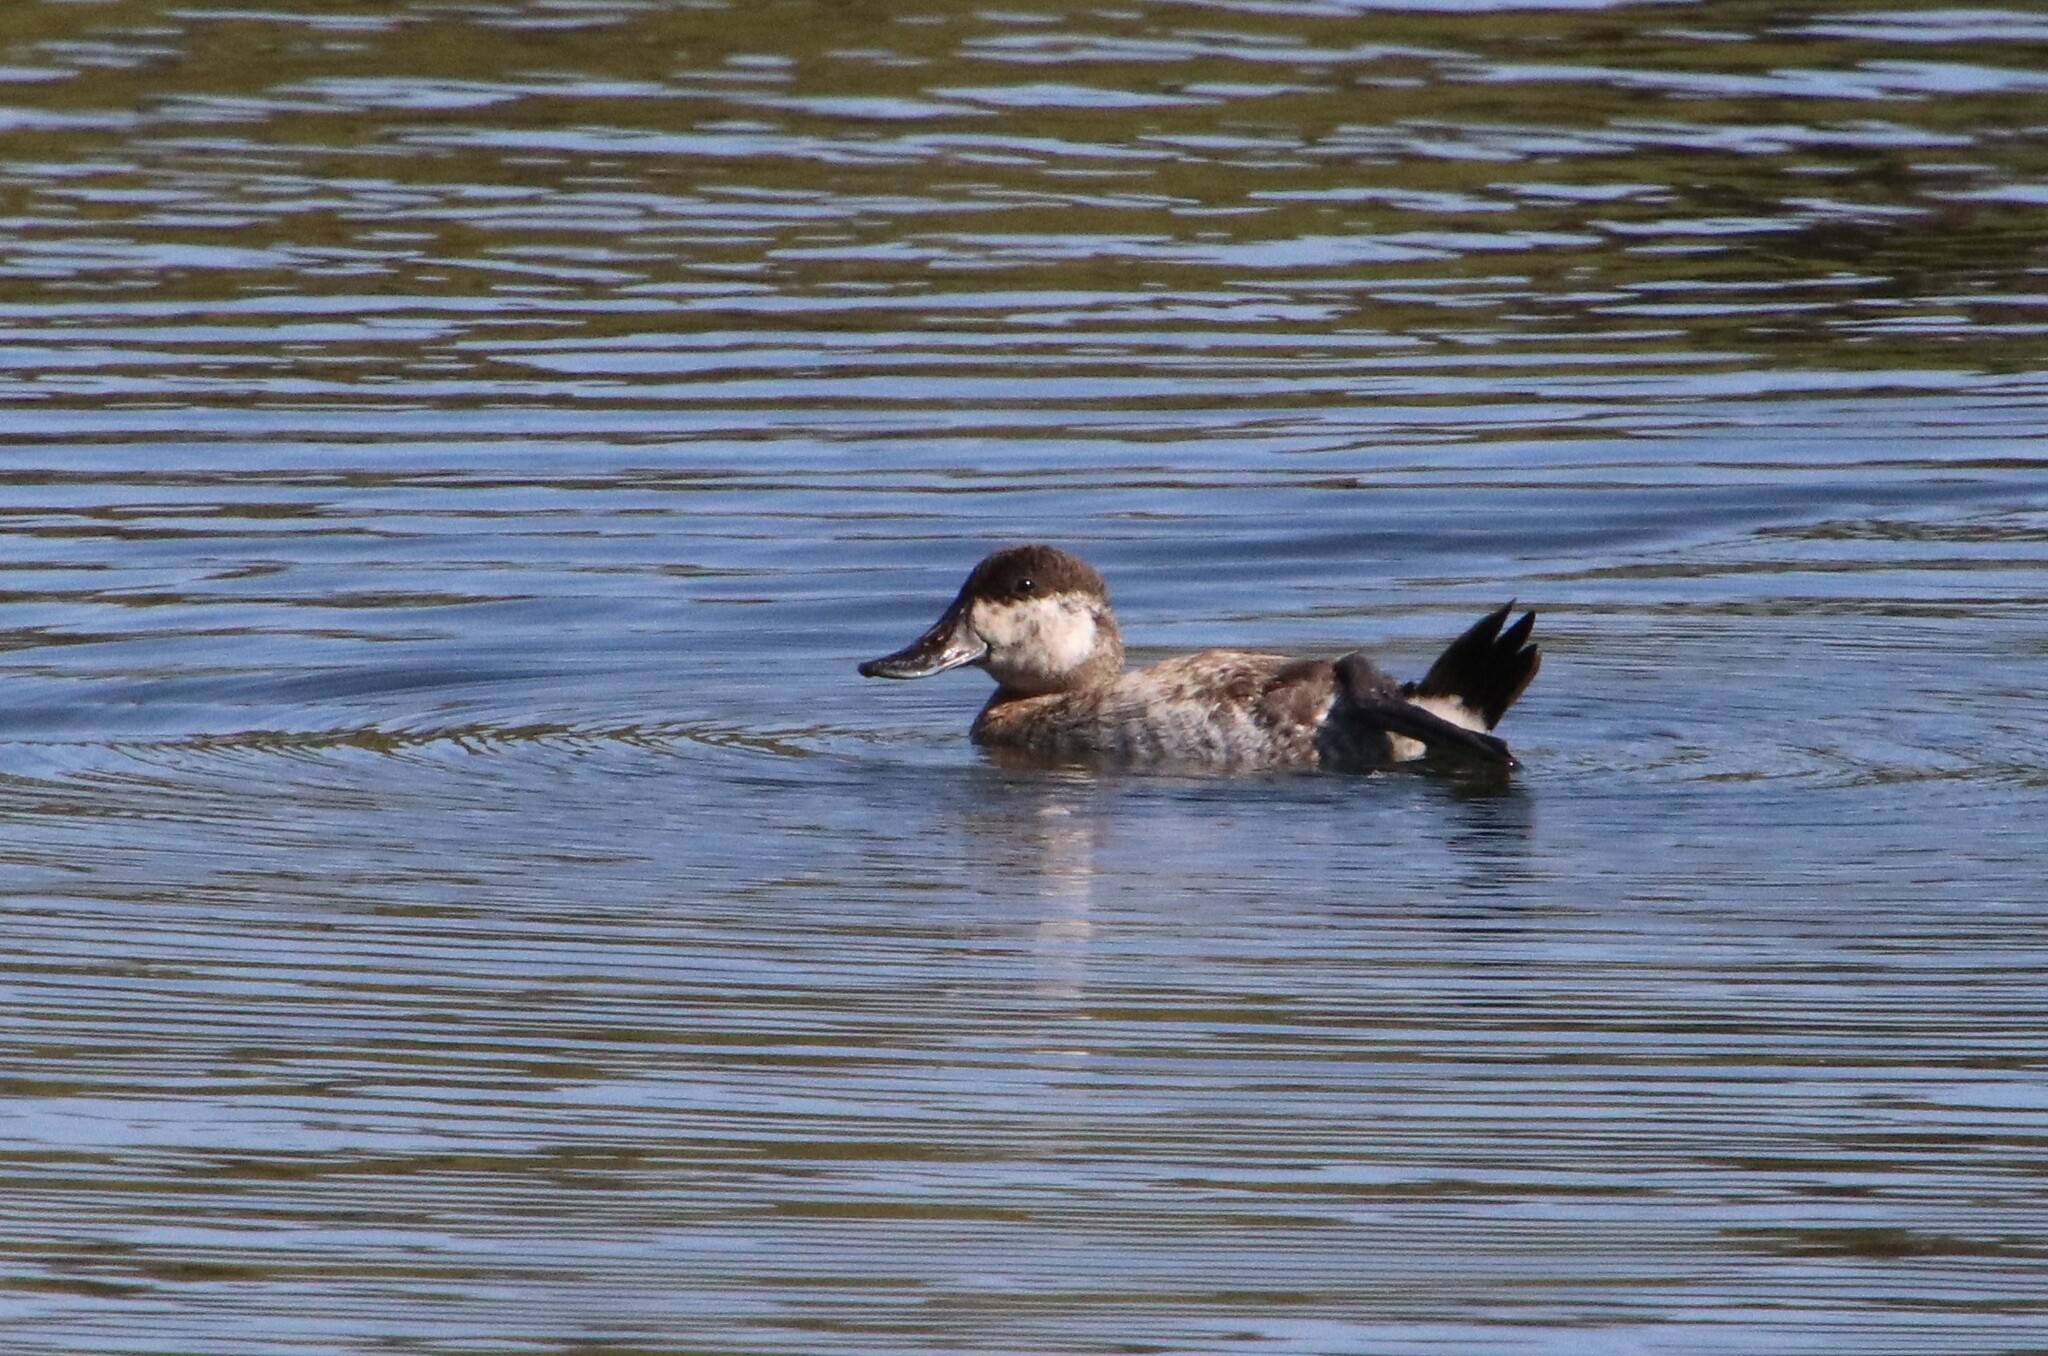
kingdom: Animalia
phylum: Chordata
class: Aves
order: Anseriformes
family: Anatidae
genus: Oxyura
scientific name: Oxyura jamaicensis
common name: Ruddy duck
